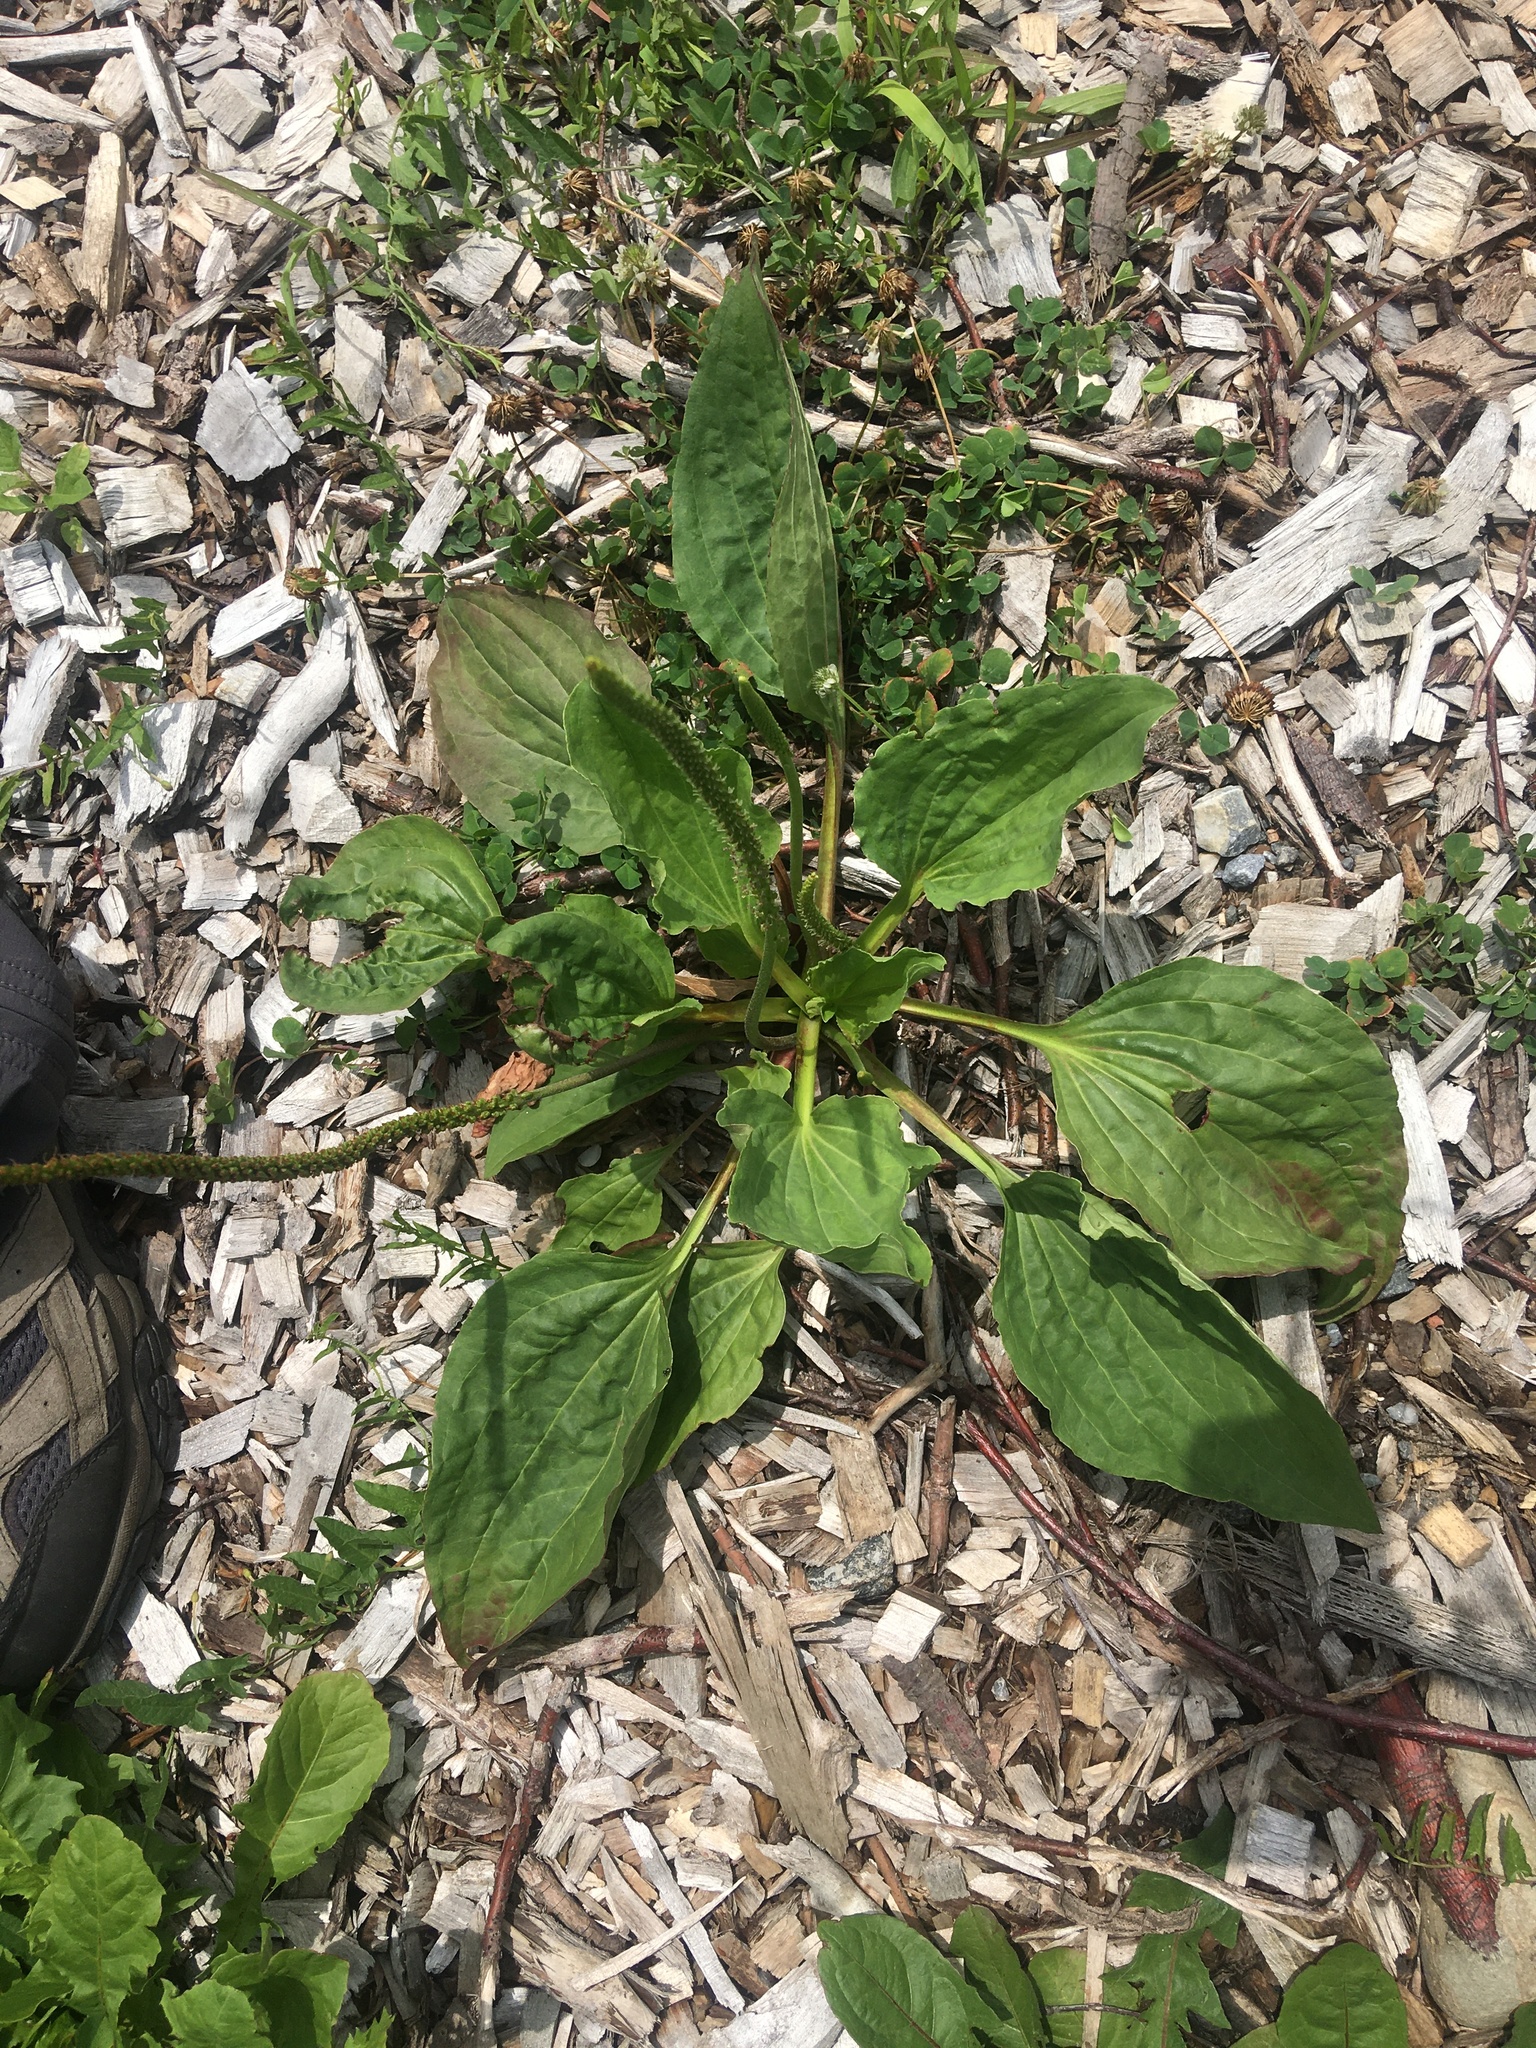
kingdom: Plantae
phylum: Tracheophyta
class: Magnoliopsida
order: Lamiales
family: Plantaginaceae
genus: Plantago
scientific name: Plantago major
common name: Common plantain
